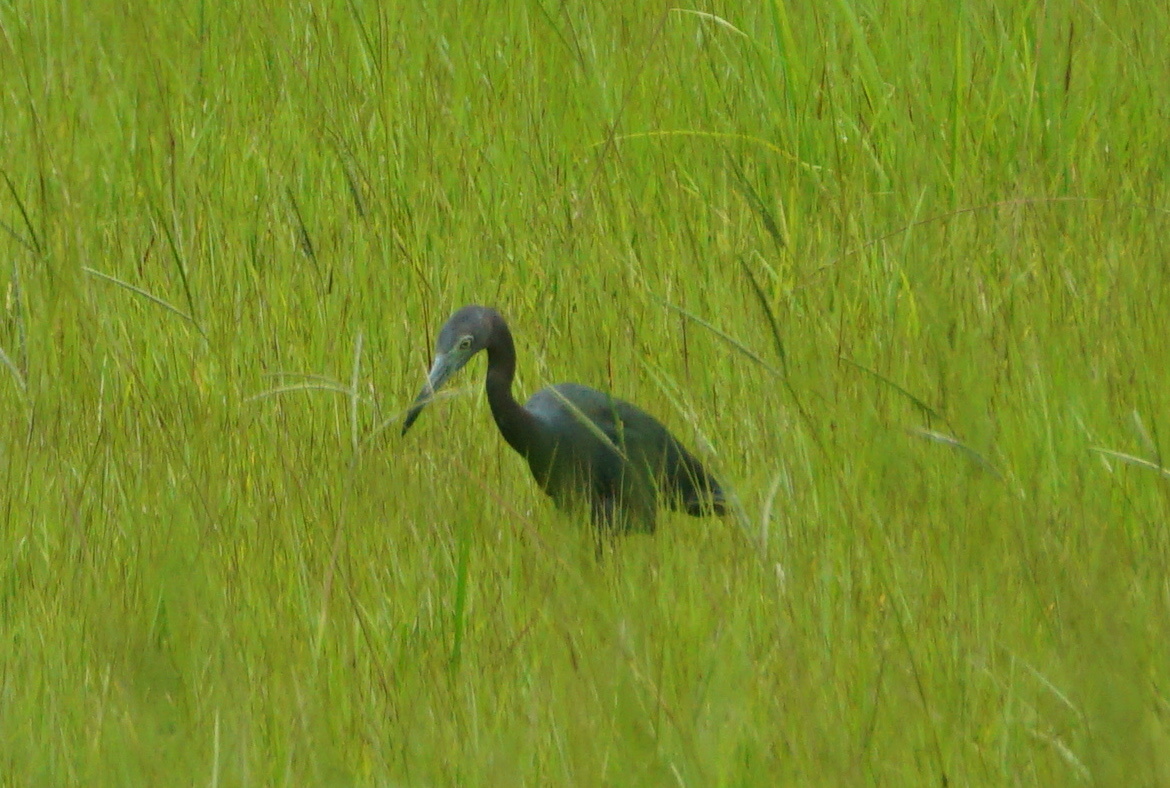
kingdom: Animalia
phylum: Chordata
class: Aves
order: Pelecaniformes
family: Ardeidae
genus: Egretta
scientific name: Egretta caerulea
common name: Little blue heron
